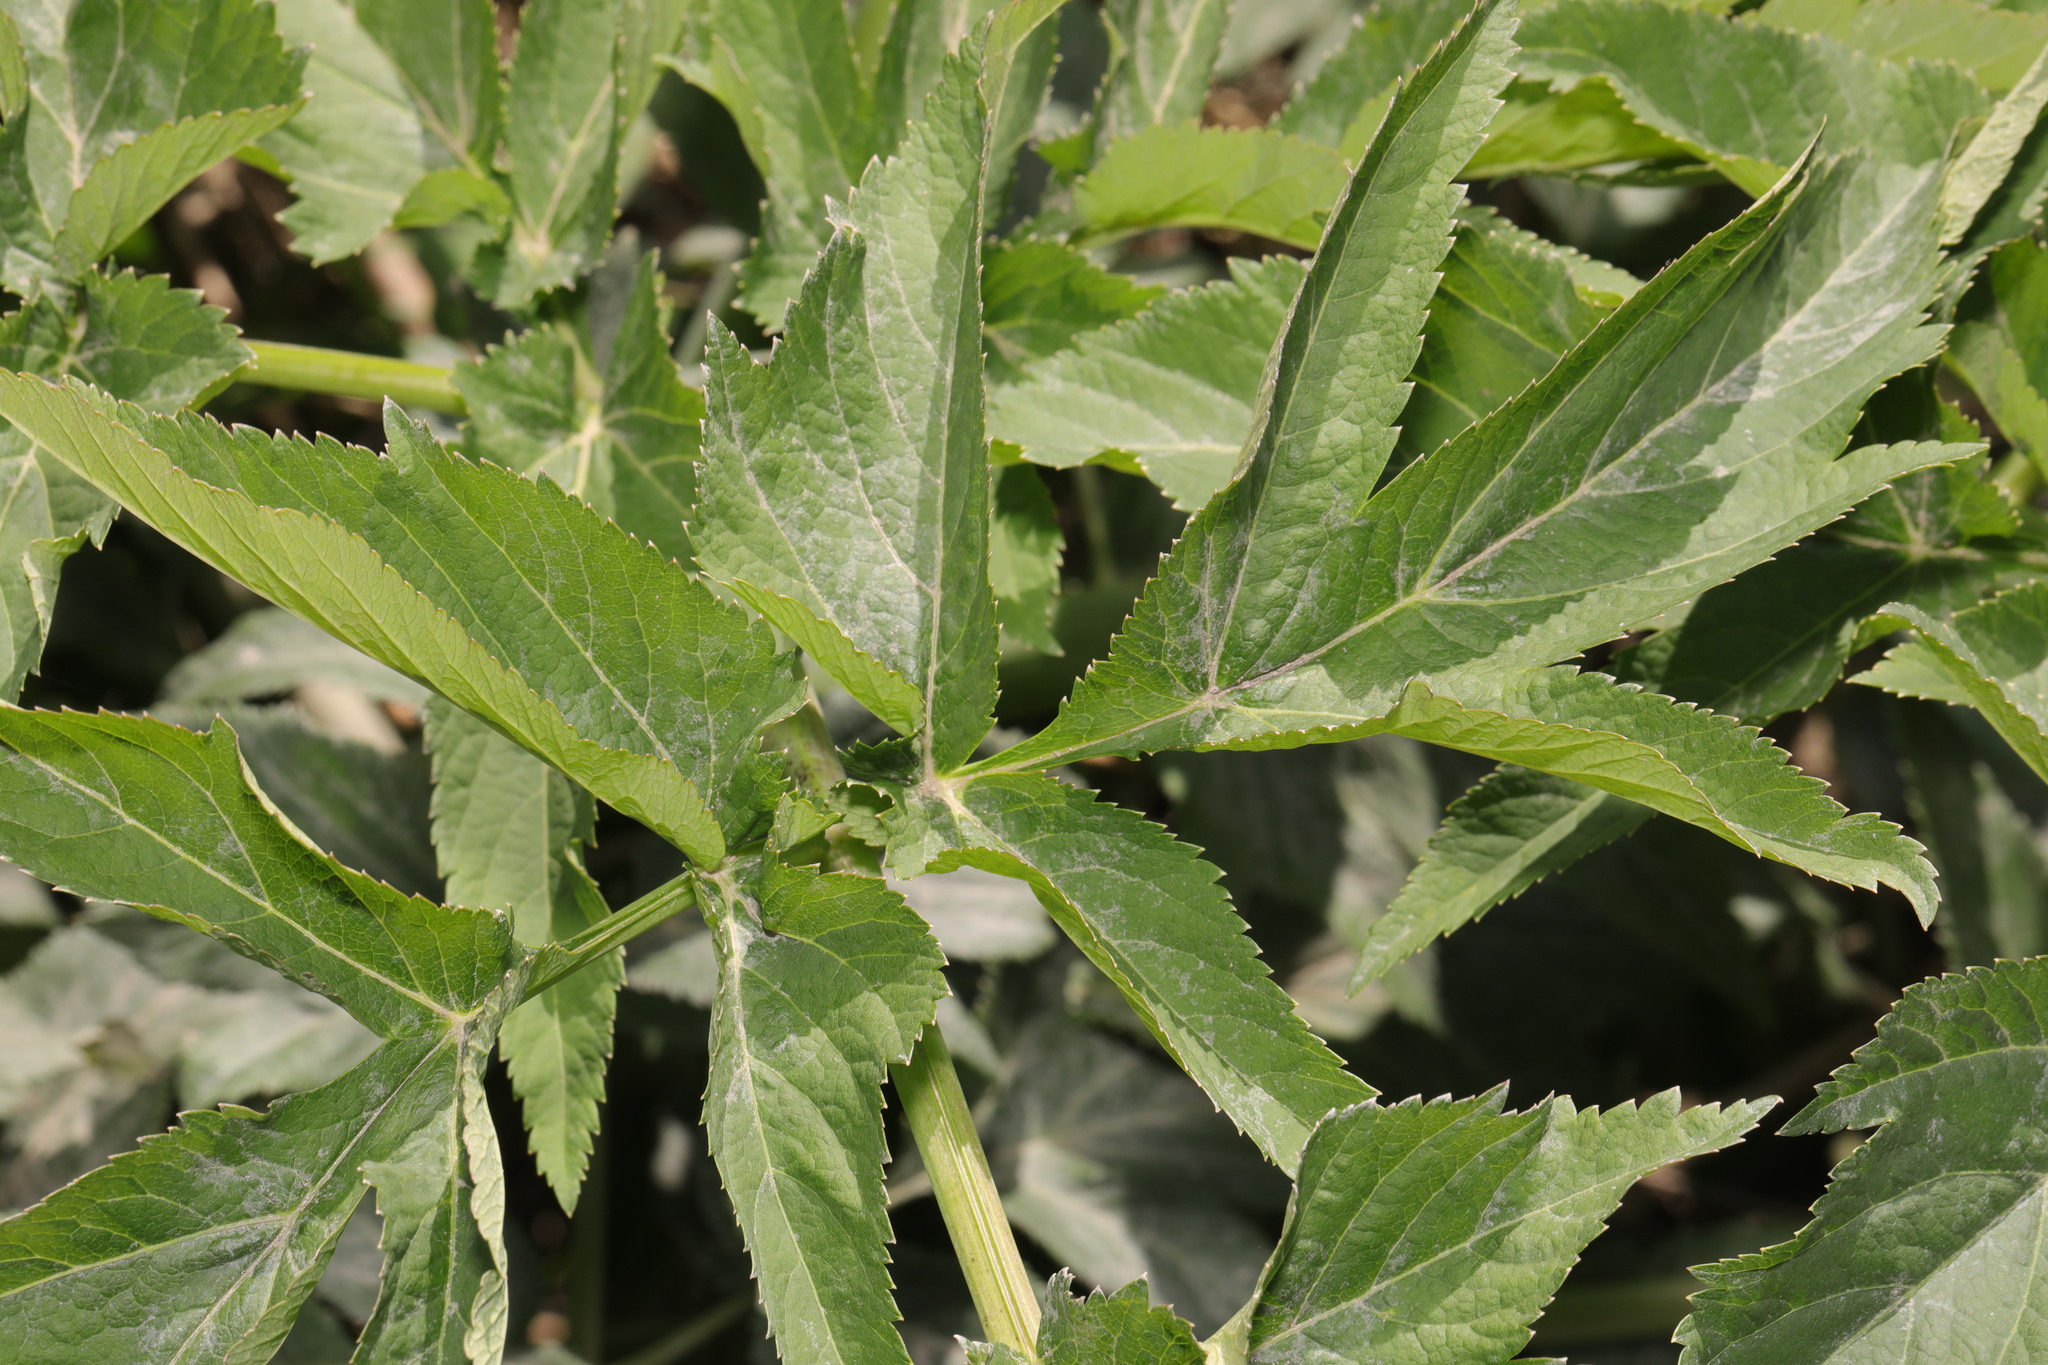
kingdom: Plantae
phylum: Tracheophyta
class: Magnoliopsida
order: Apiales
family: Apiaceae
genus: Heracleum
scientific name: Heracleum mantegazzianum
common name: Giant hogweed
